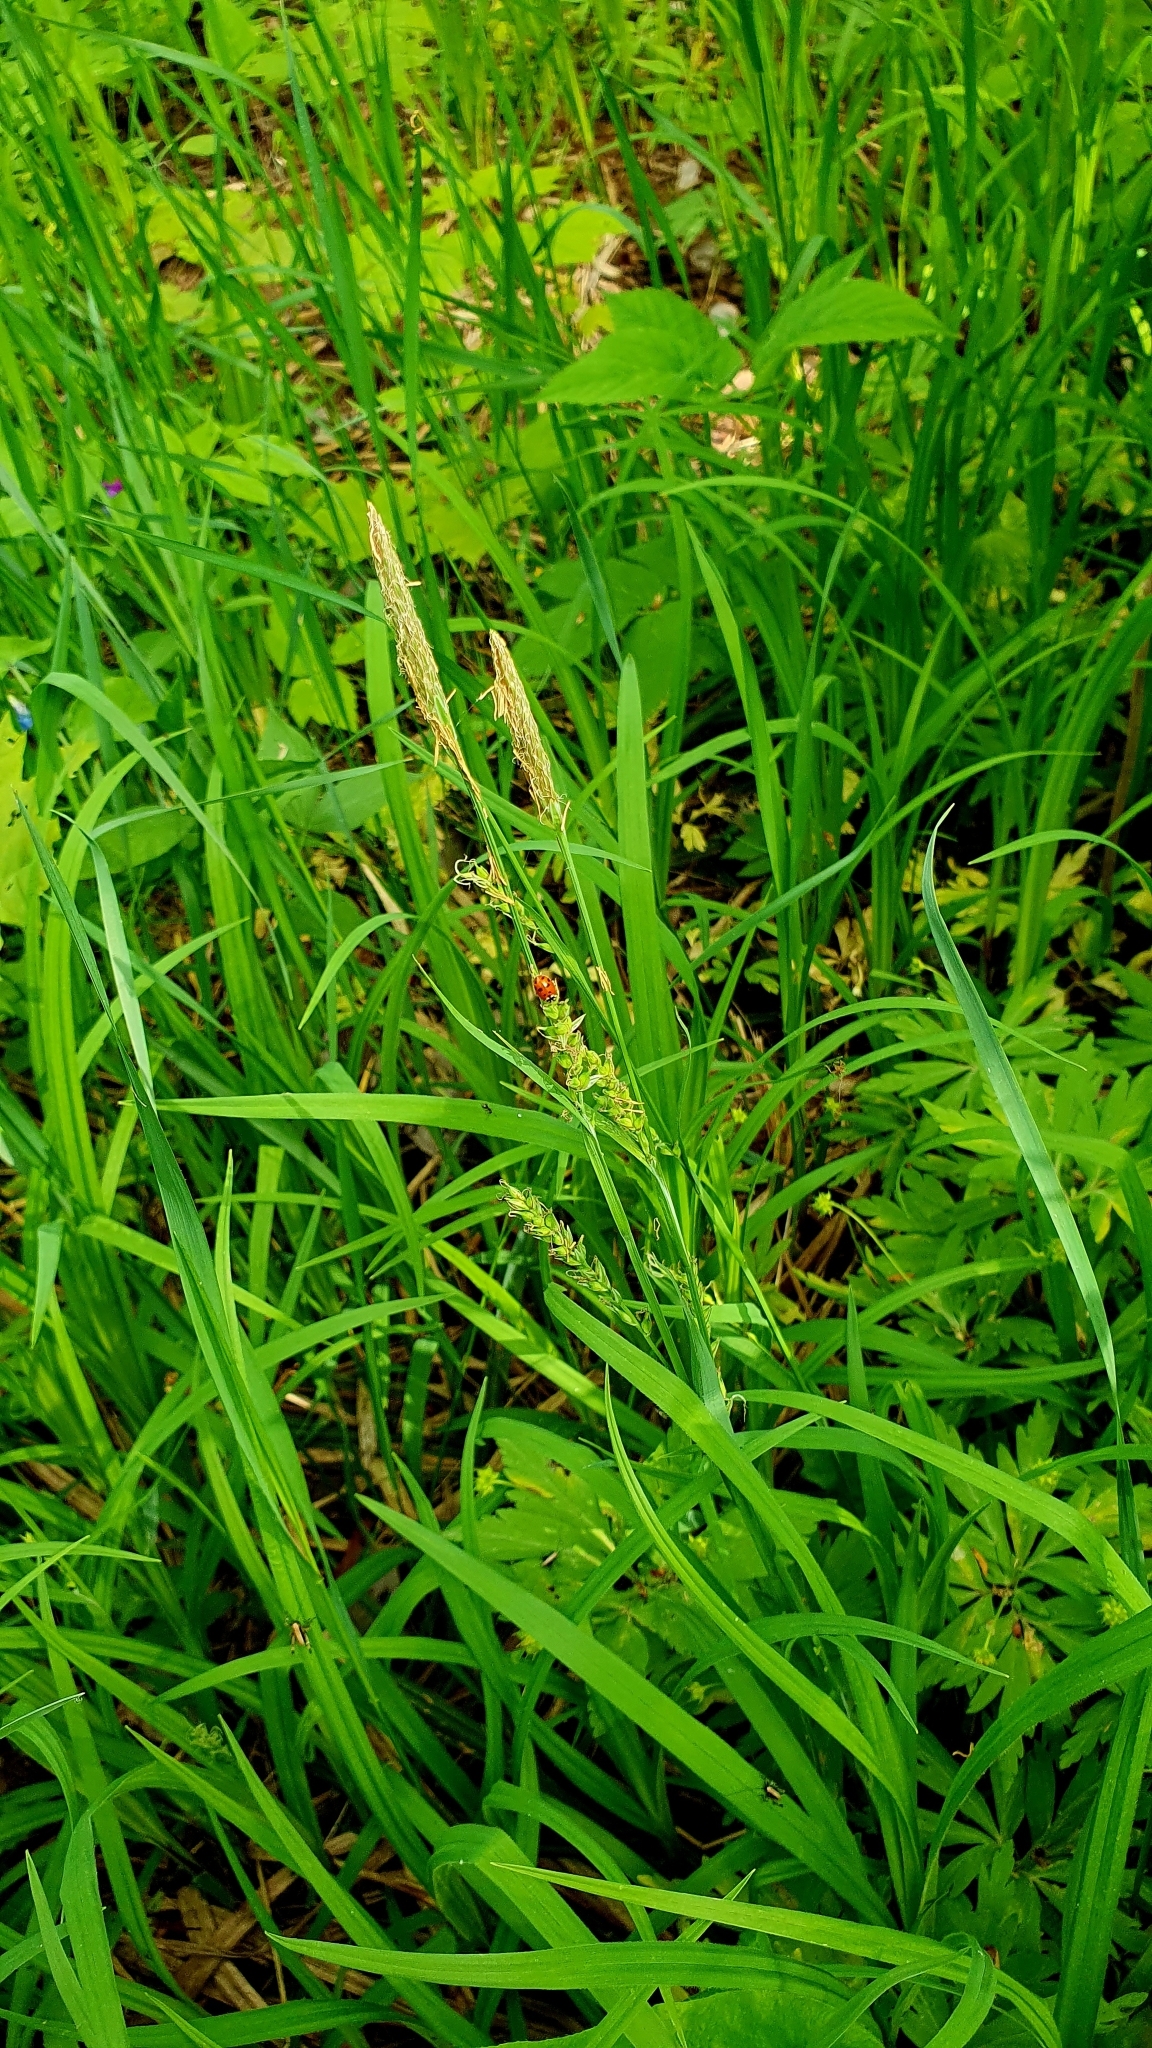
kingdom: Plantae
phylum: Tracheophyta
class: Liliopsida
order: Poales
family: Cyperaceae
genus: Carex
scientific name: Carex pilosa
